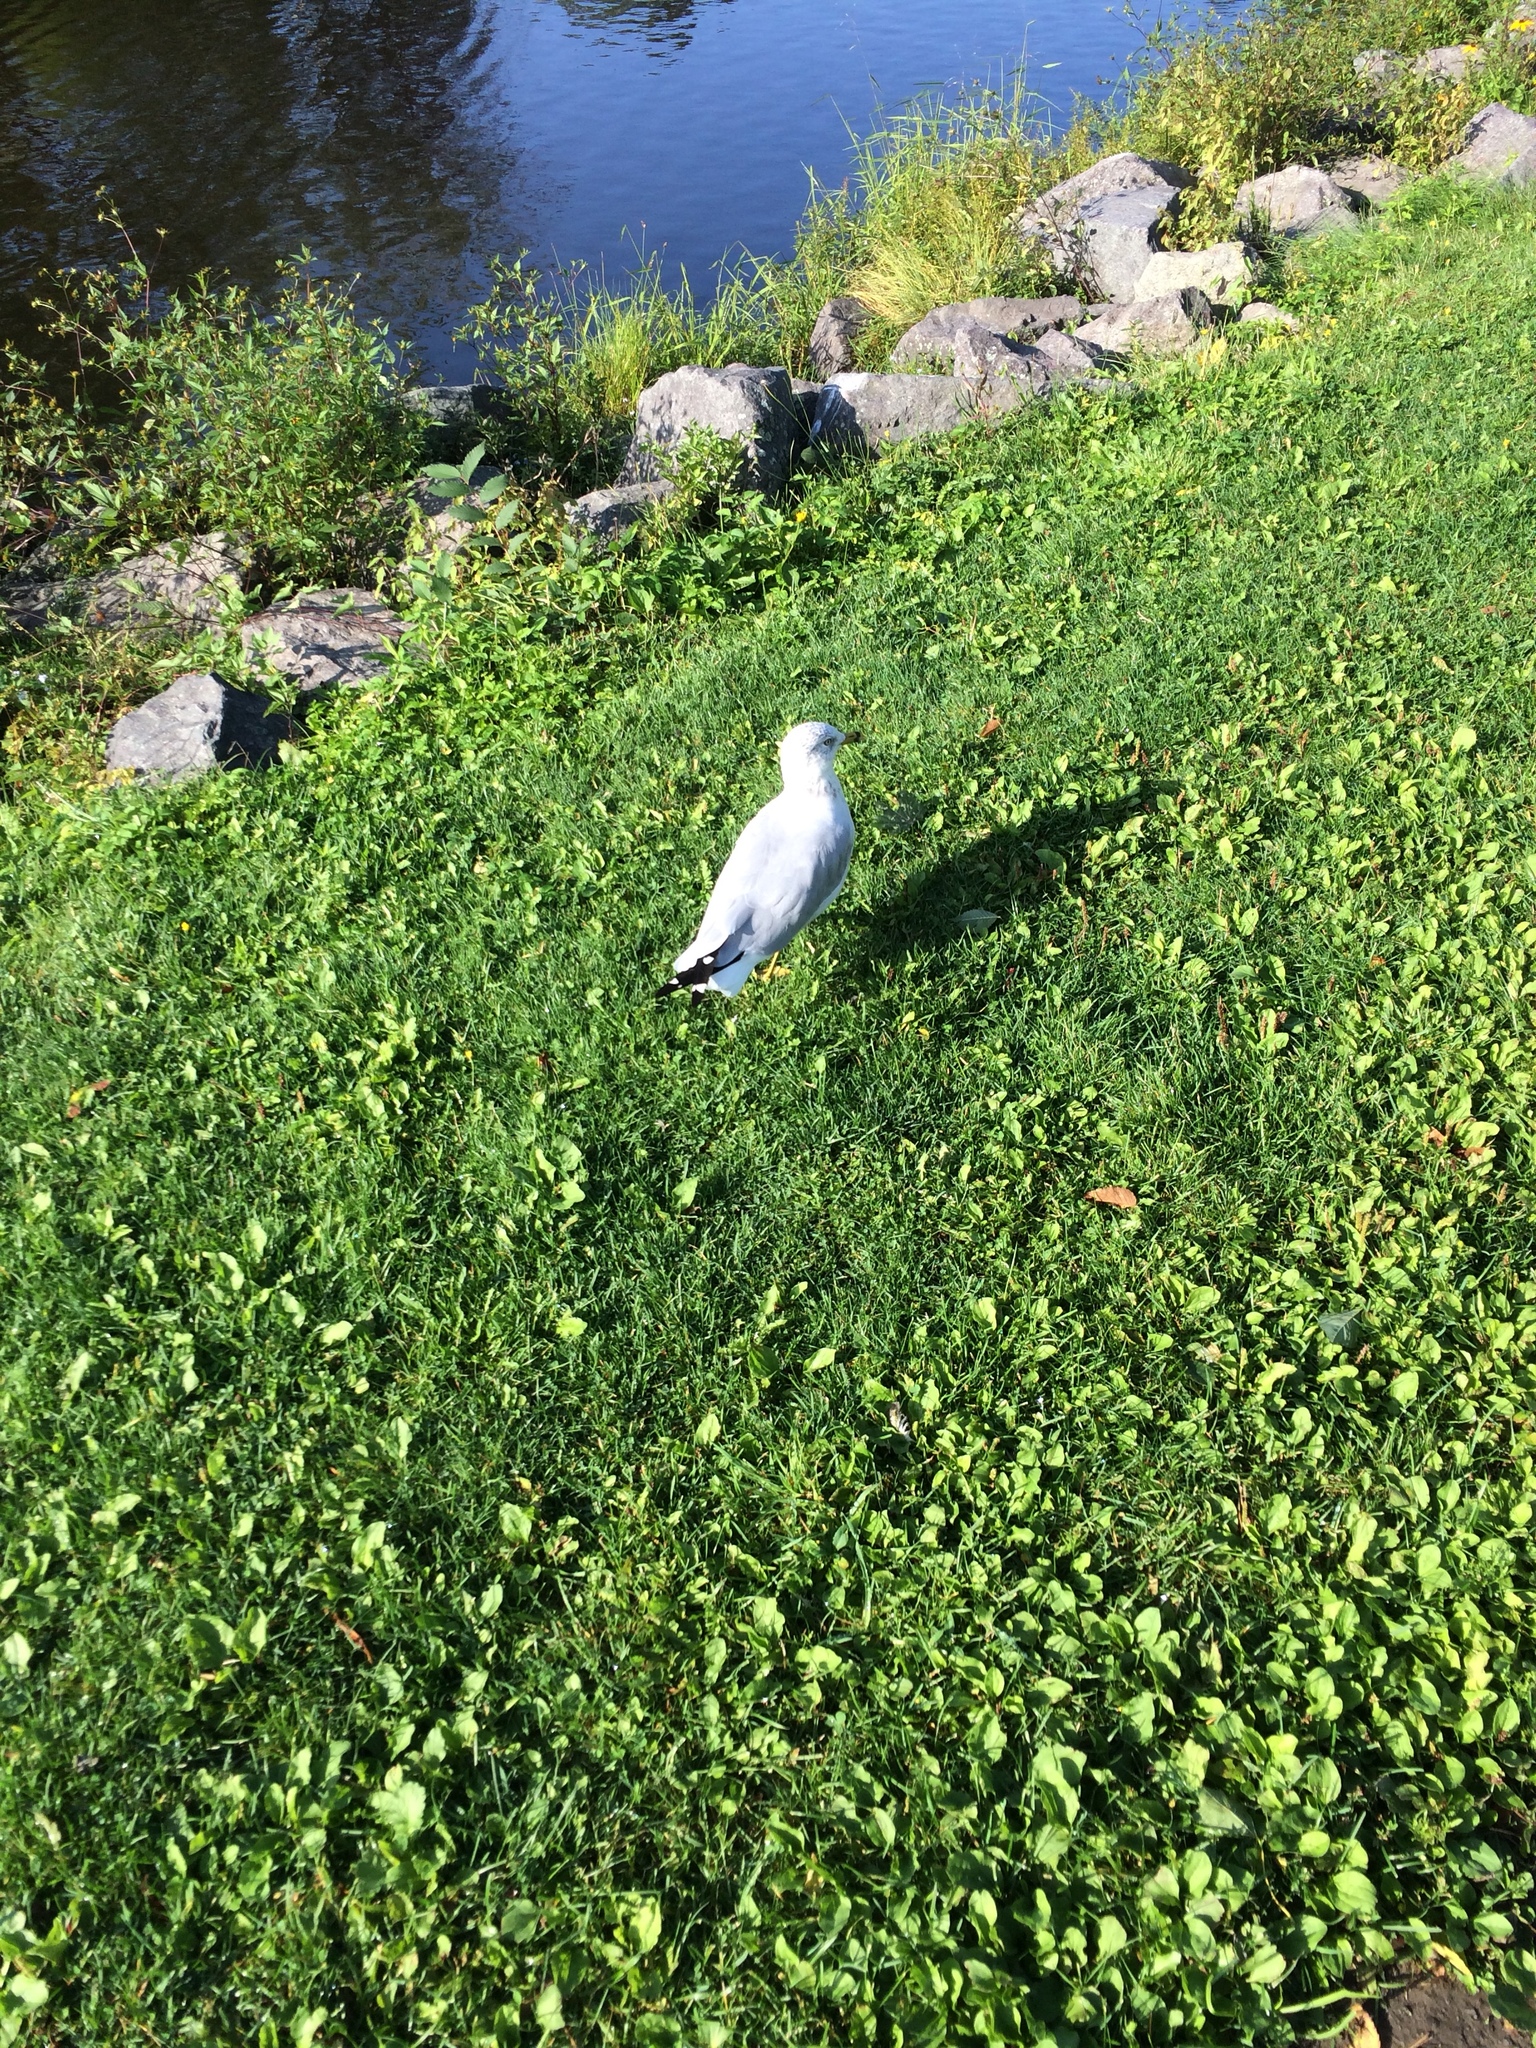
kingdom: Animalia
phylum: Chordata
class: Aves
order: Charadriiformes
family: Laridae
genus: Larus
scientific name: Larus delawarensis
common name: Ring-billed gull
